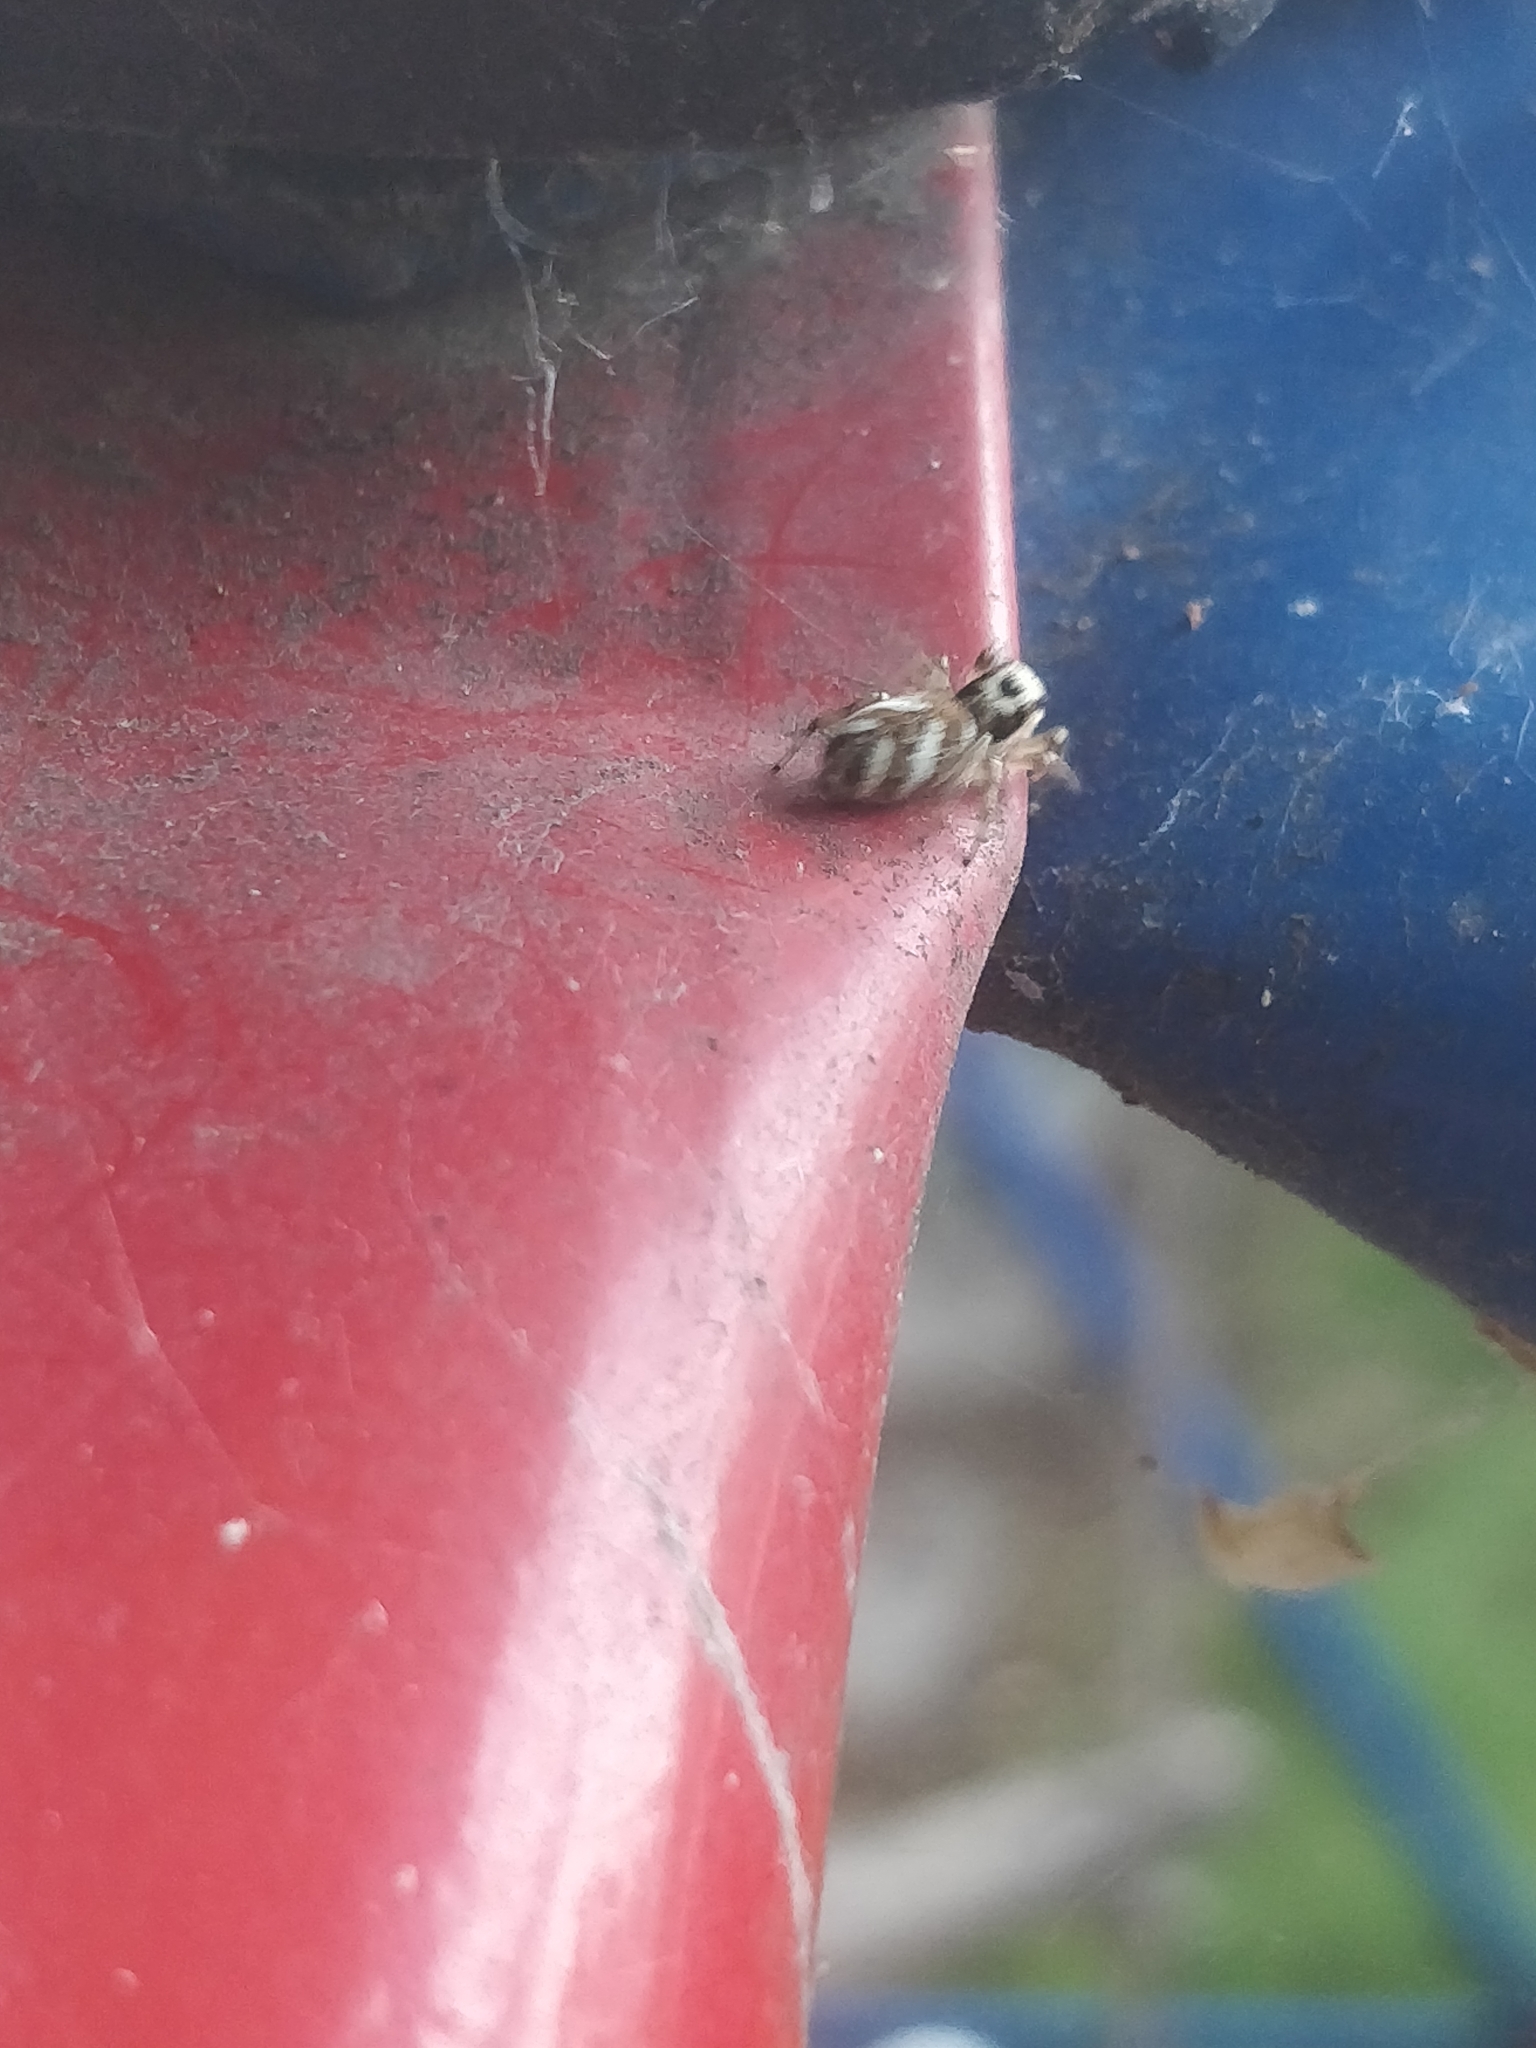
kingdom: Animalia
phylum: Arthropoda
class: Arachnida
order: Araneae
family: Salticidae
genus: Salticus
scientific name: Salticus scenicus
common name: Zebra jumper
